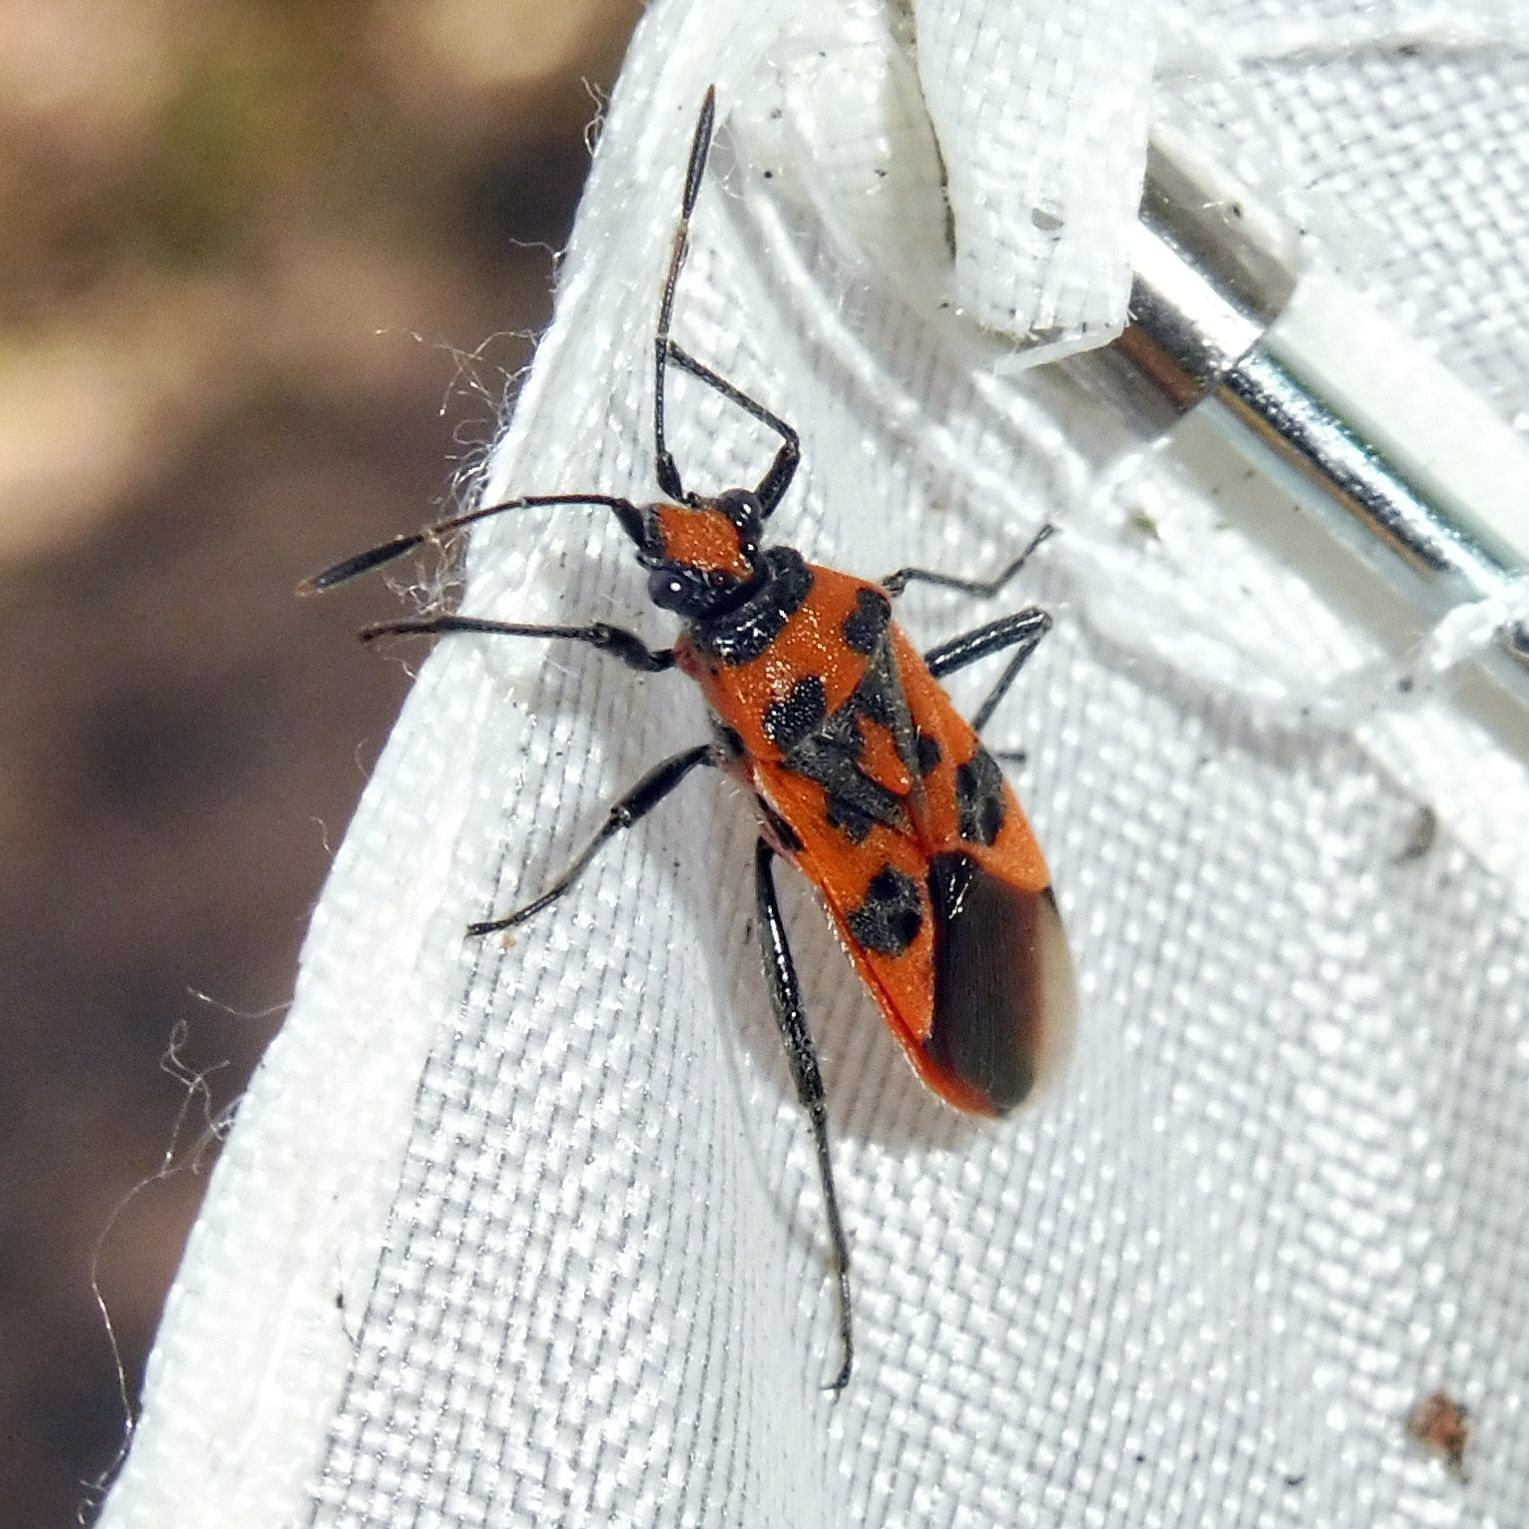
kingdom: Animalia
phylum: Arthropoda
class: Insecta
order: Hemiptera
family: Rhopalidae
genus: Corizus
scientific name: Corizus hyoscyami
